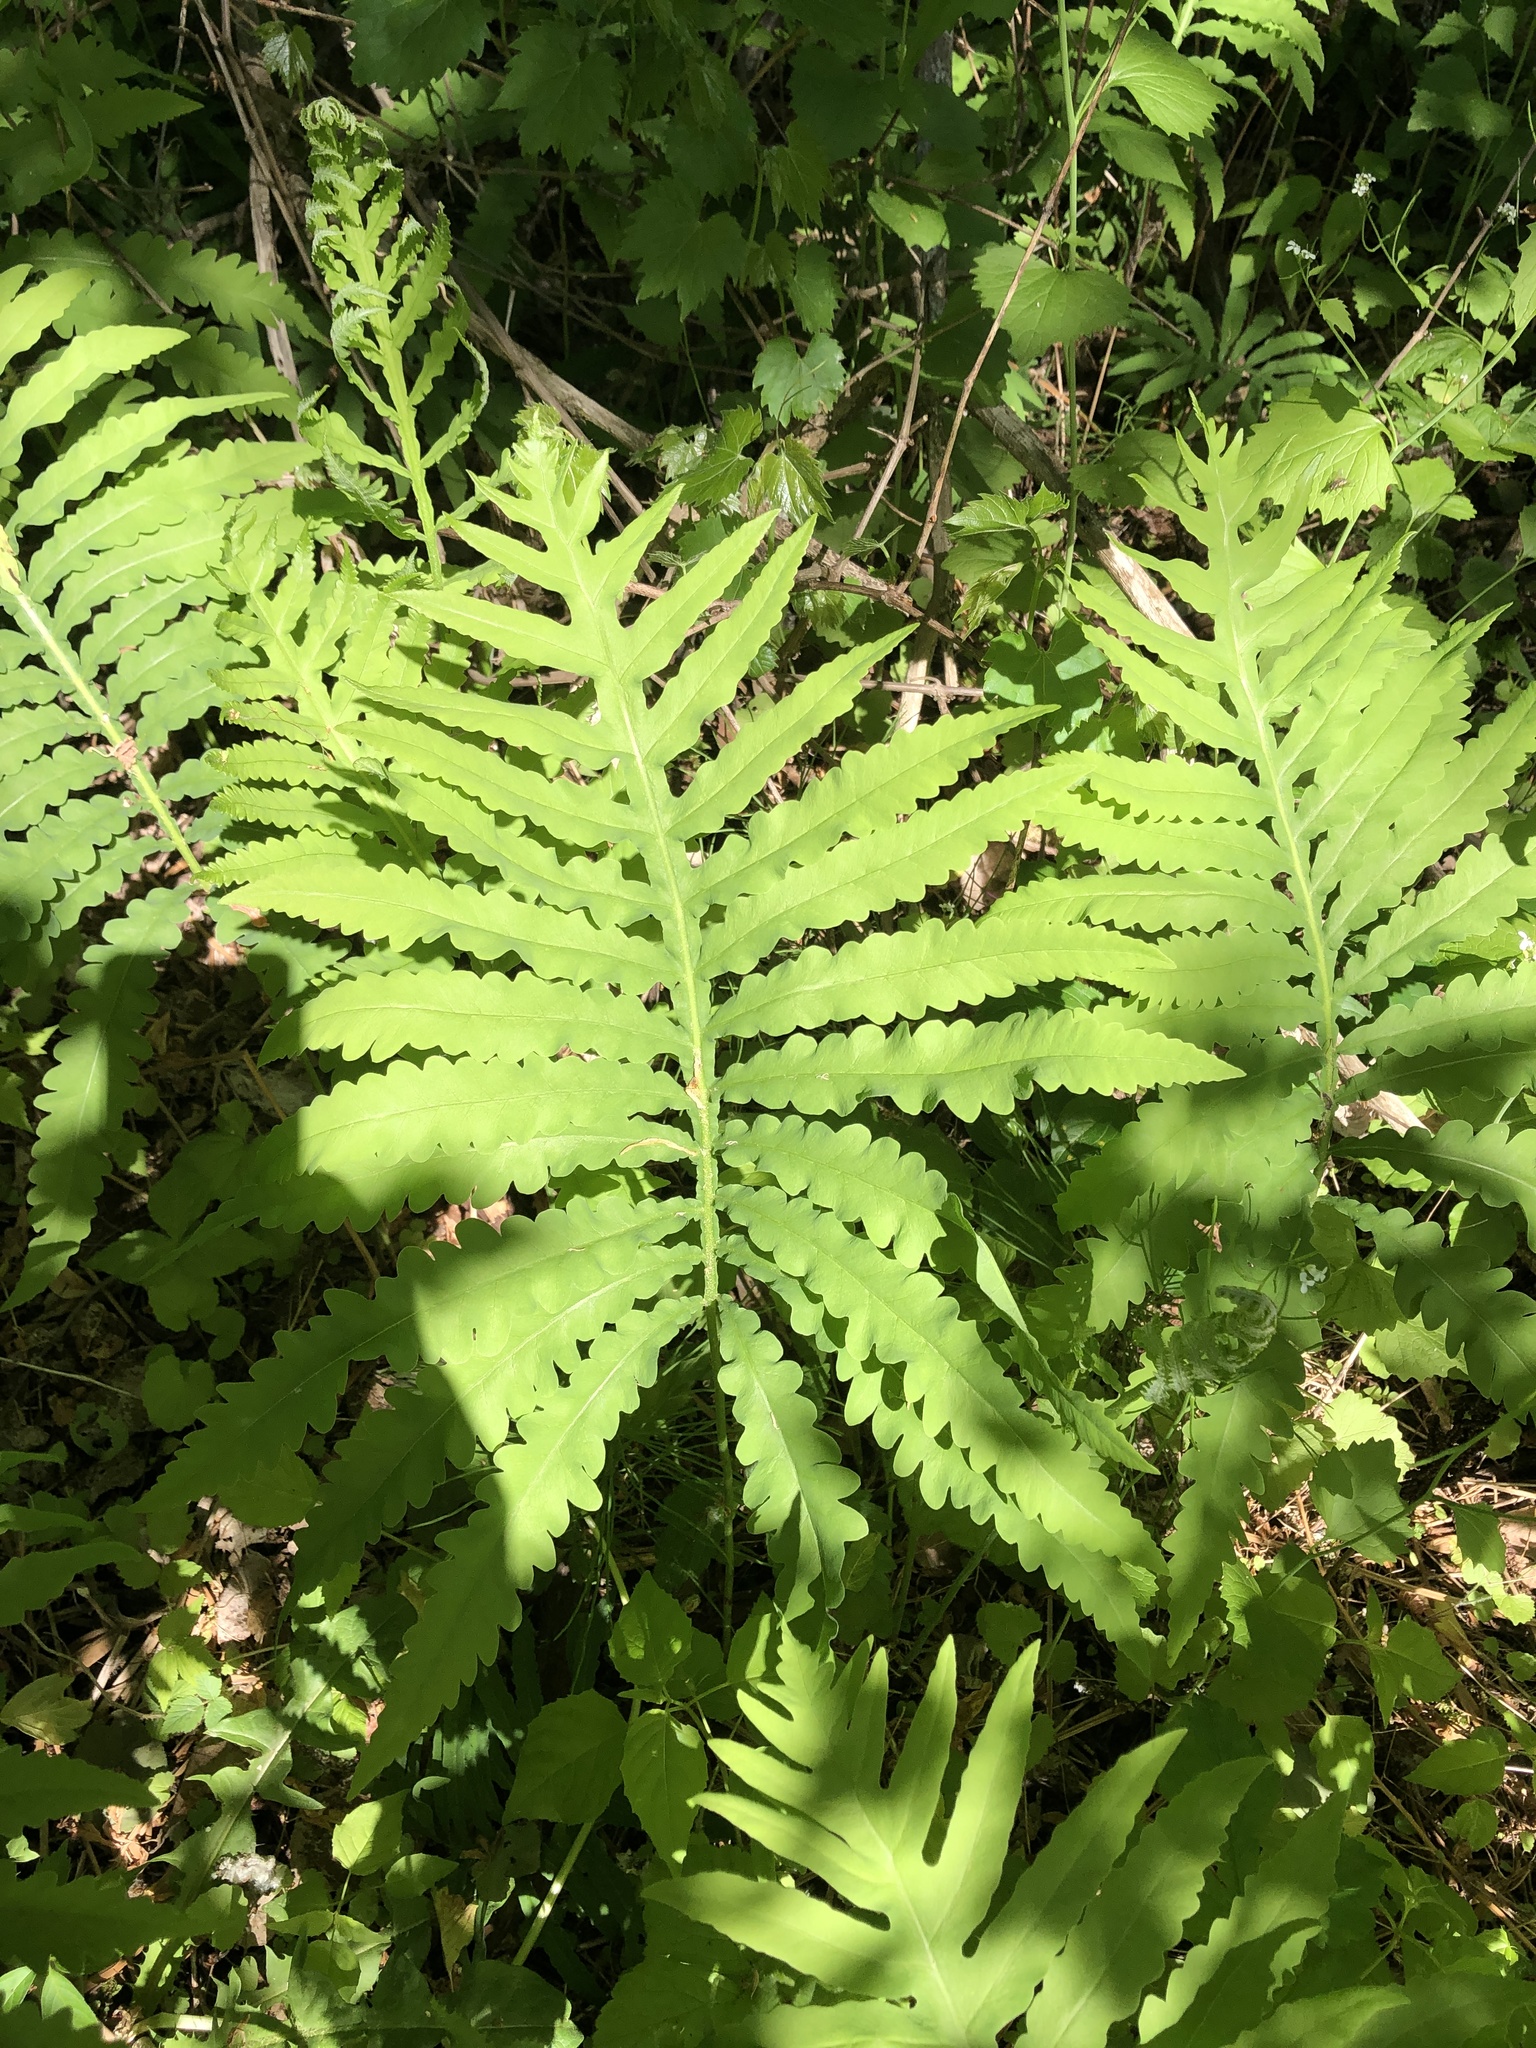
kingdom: Plantae
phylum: Tracheophyta
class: Polypodiopsida
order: Polypodiales
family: Onocleaceae
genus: Onoclea
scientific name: Onoclea sensibilis
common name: Sensitive fern
